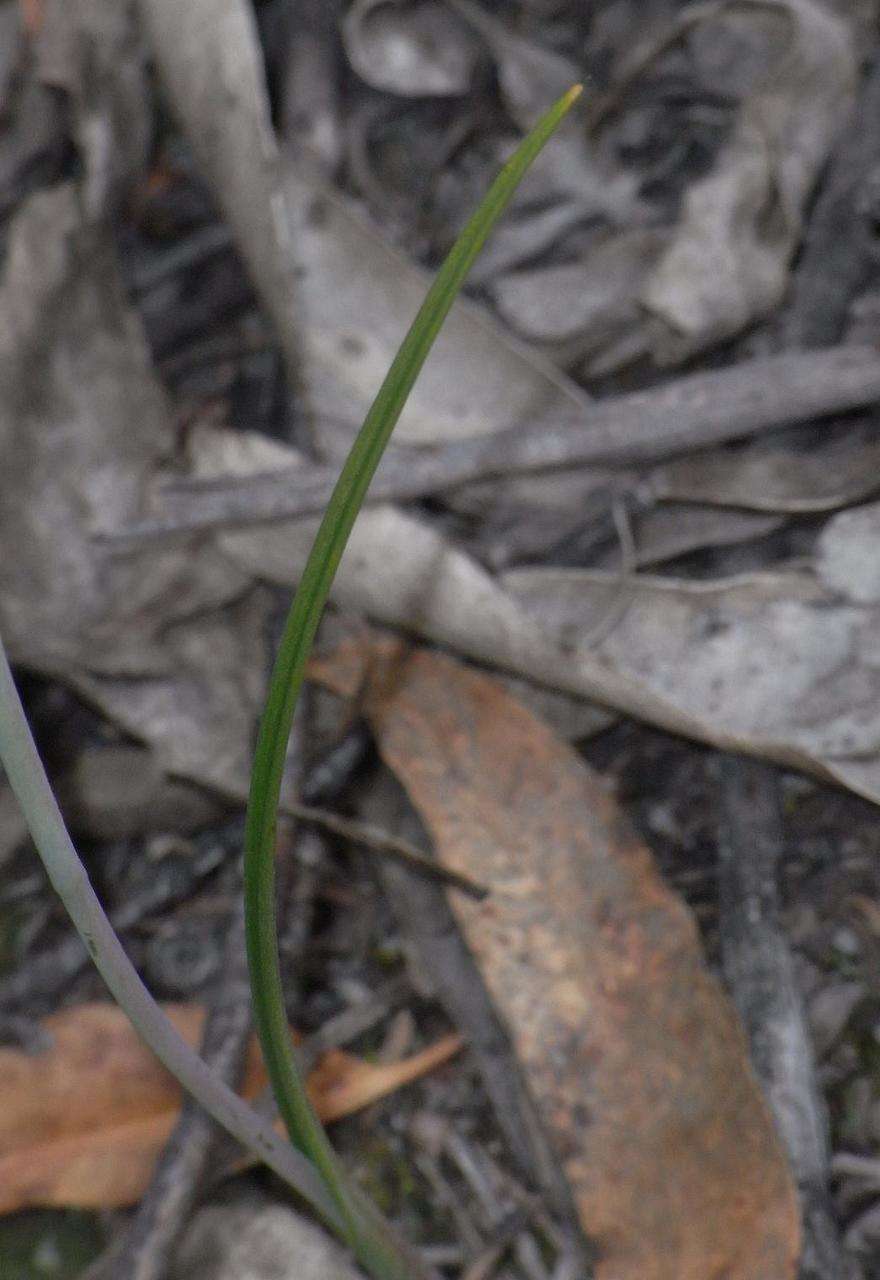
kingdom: Plantae
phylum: Tracheophyta
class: Liliopsida
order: Asparagales
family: Orchidaceae
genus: Thelymitra
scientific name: Thelymitra ixioides
